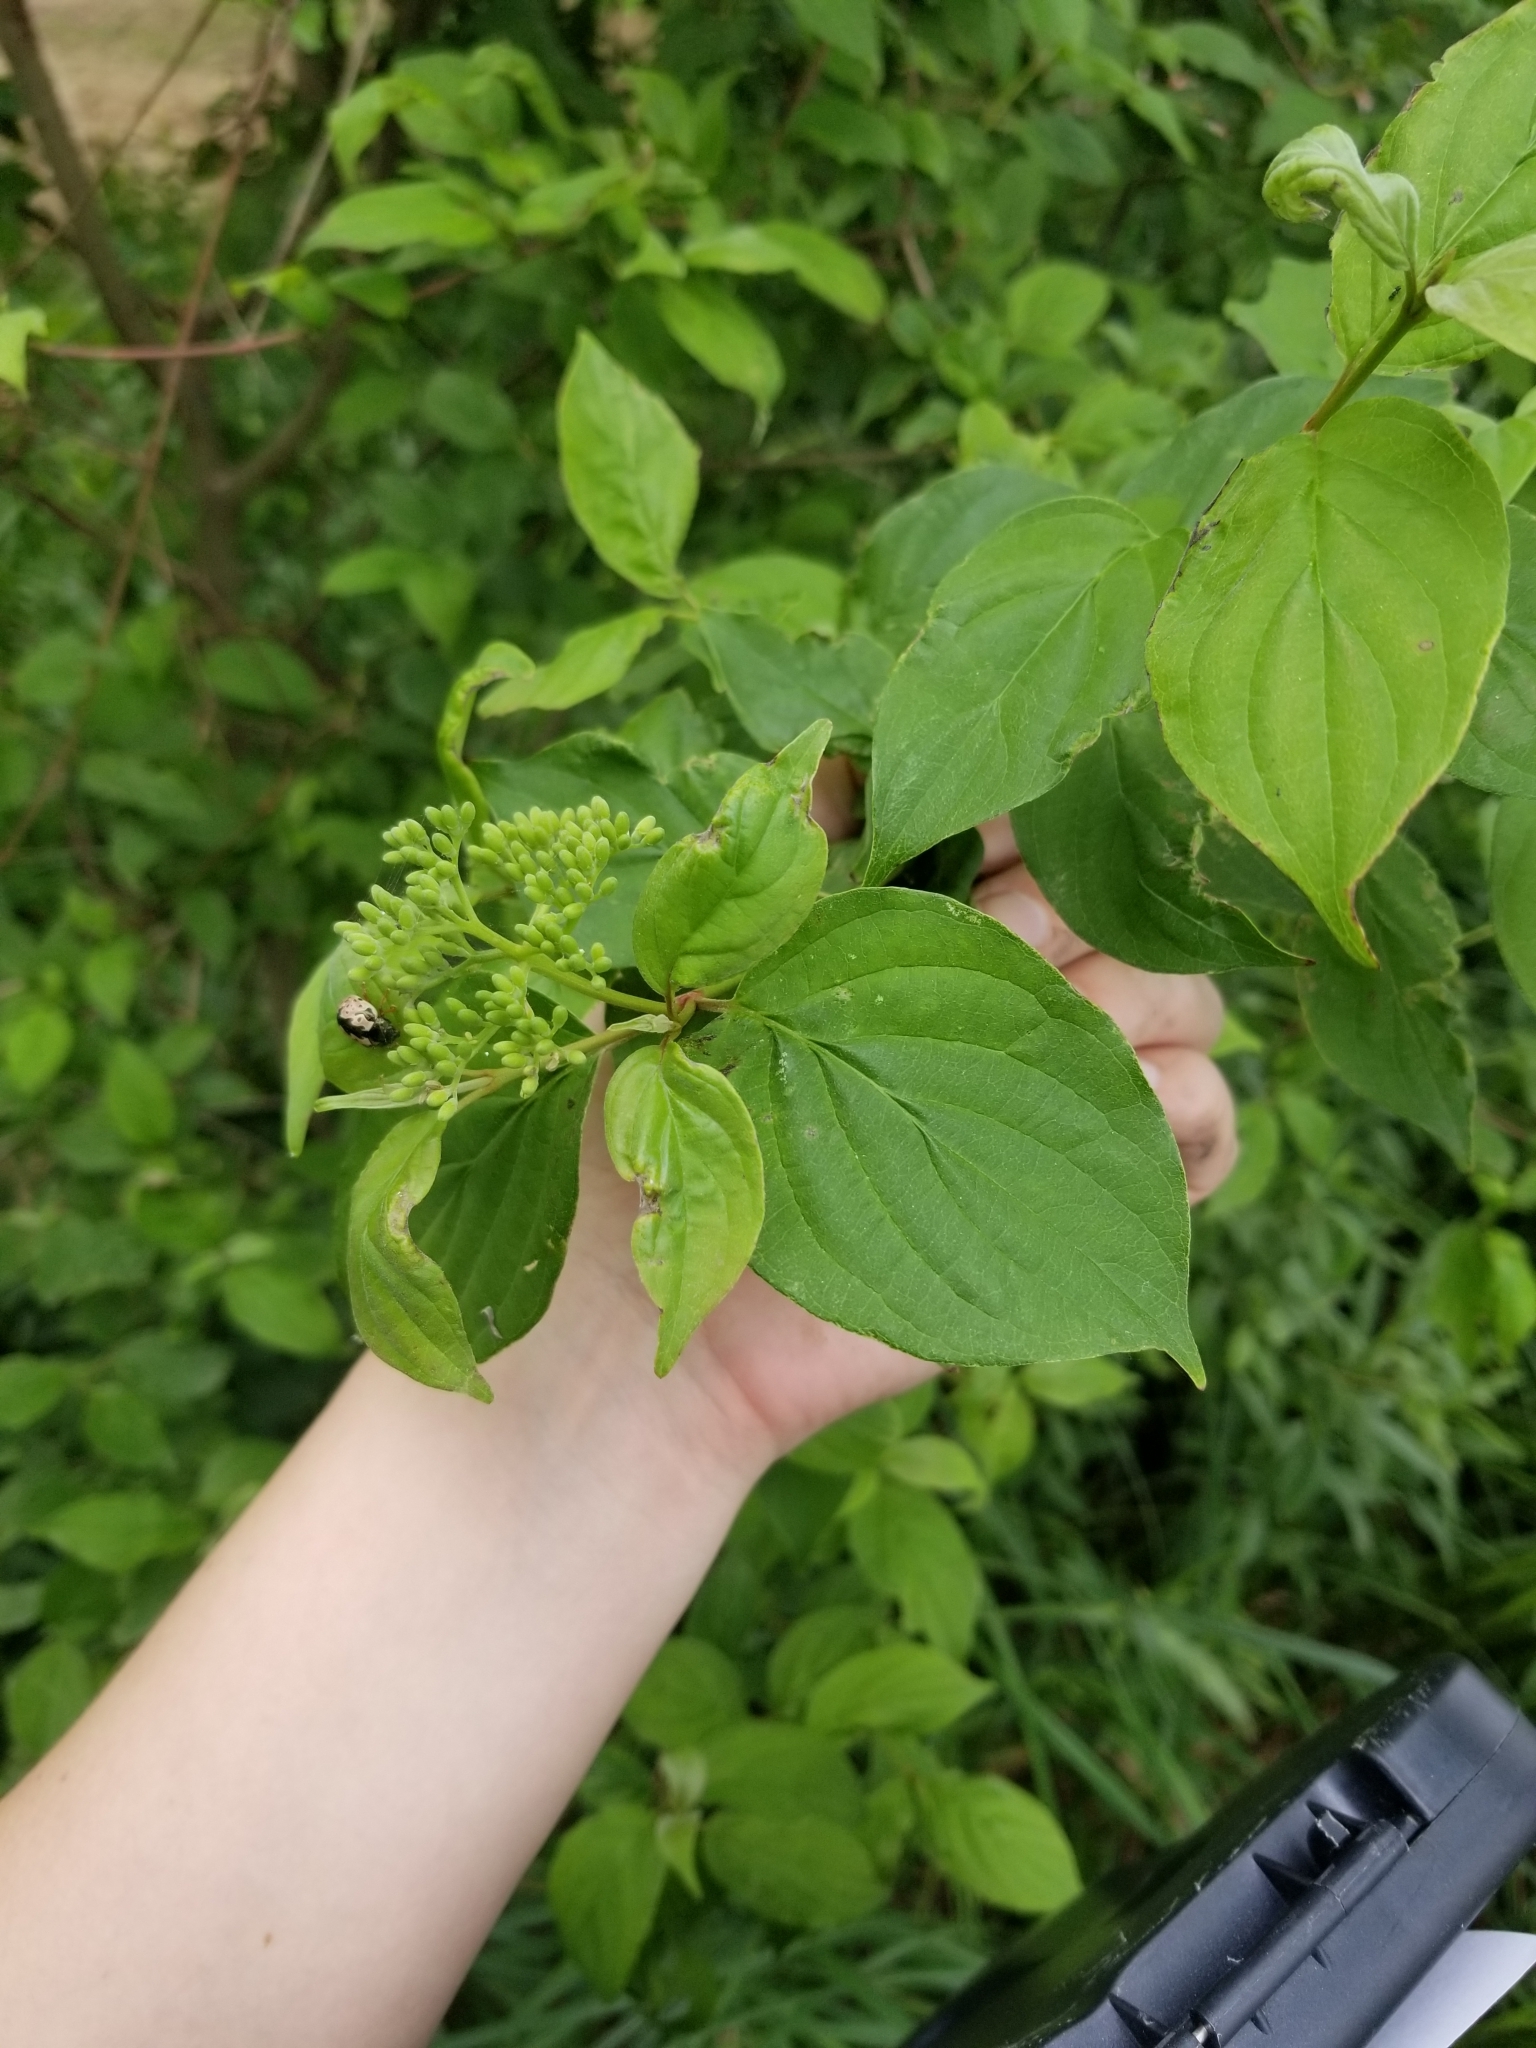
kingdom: Plantae
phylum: Tracheophyta
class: Magnoliopsida
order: Cornales
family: Cornaceae
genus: Cornus
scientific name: Cornus drummondii
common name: Rough-leaf dogwood
